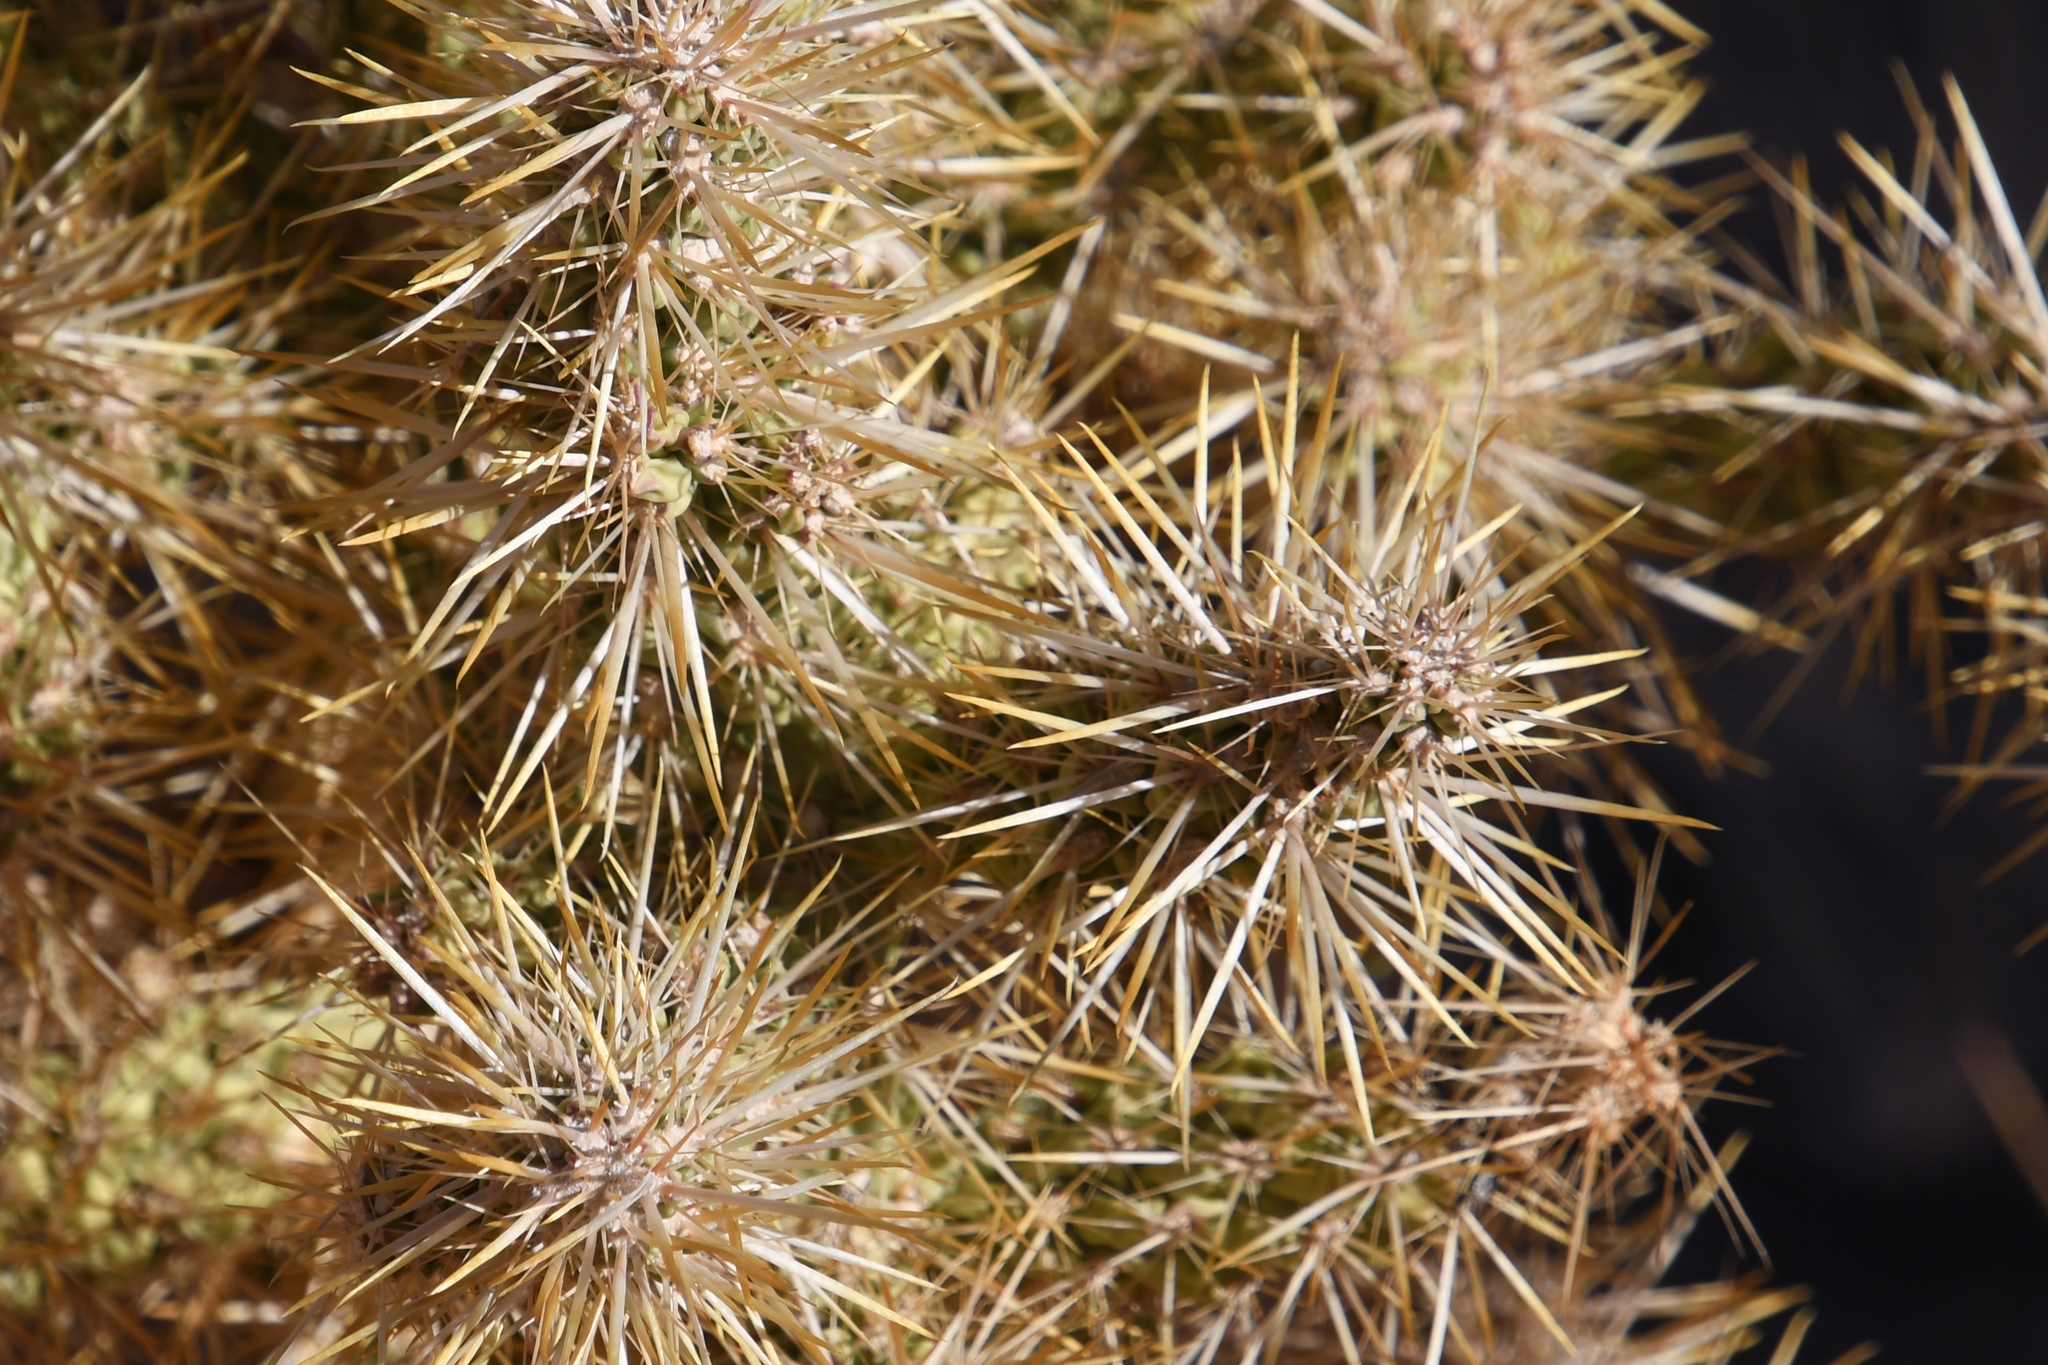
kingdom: Plantae
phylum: Tracheophyta
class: Magnoliopsida
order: Caryophyllales
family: Cactaceae
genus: Cylindropuntia
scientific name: Cylindropuntia echinocarpa
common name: Ground cholla
